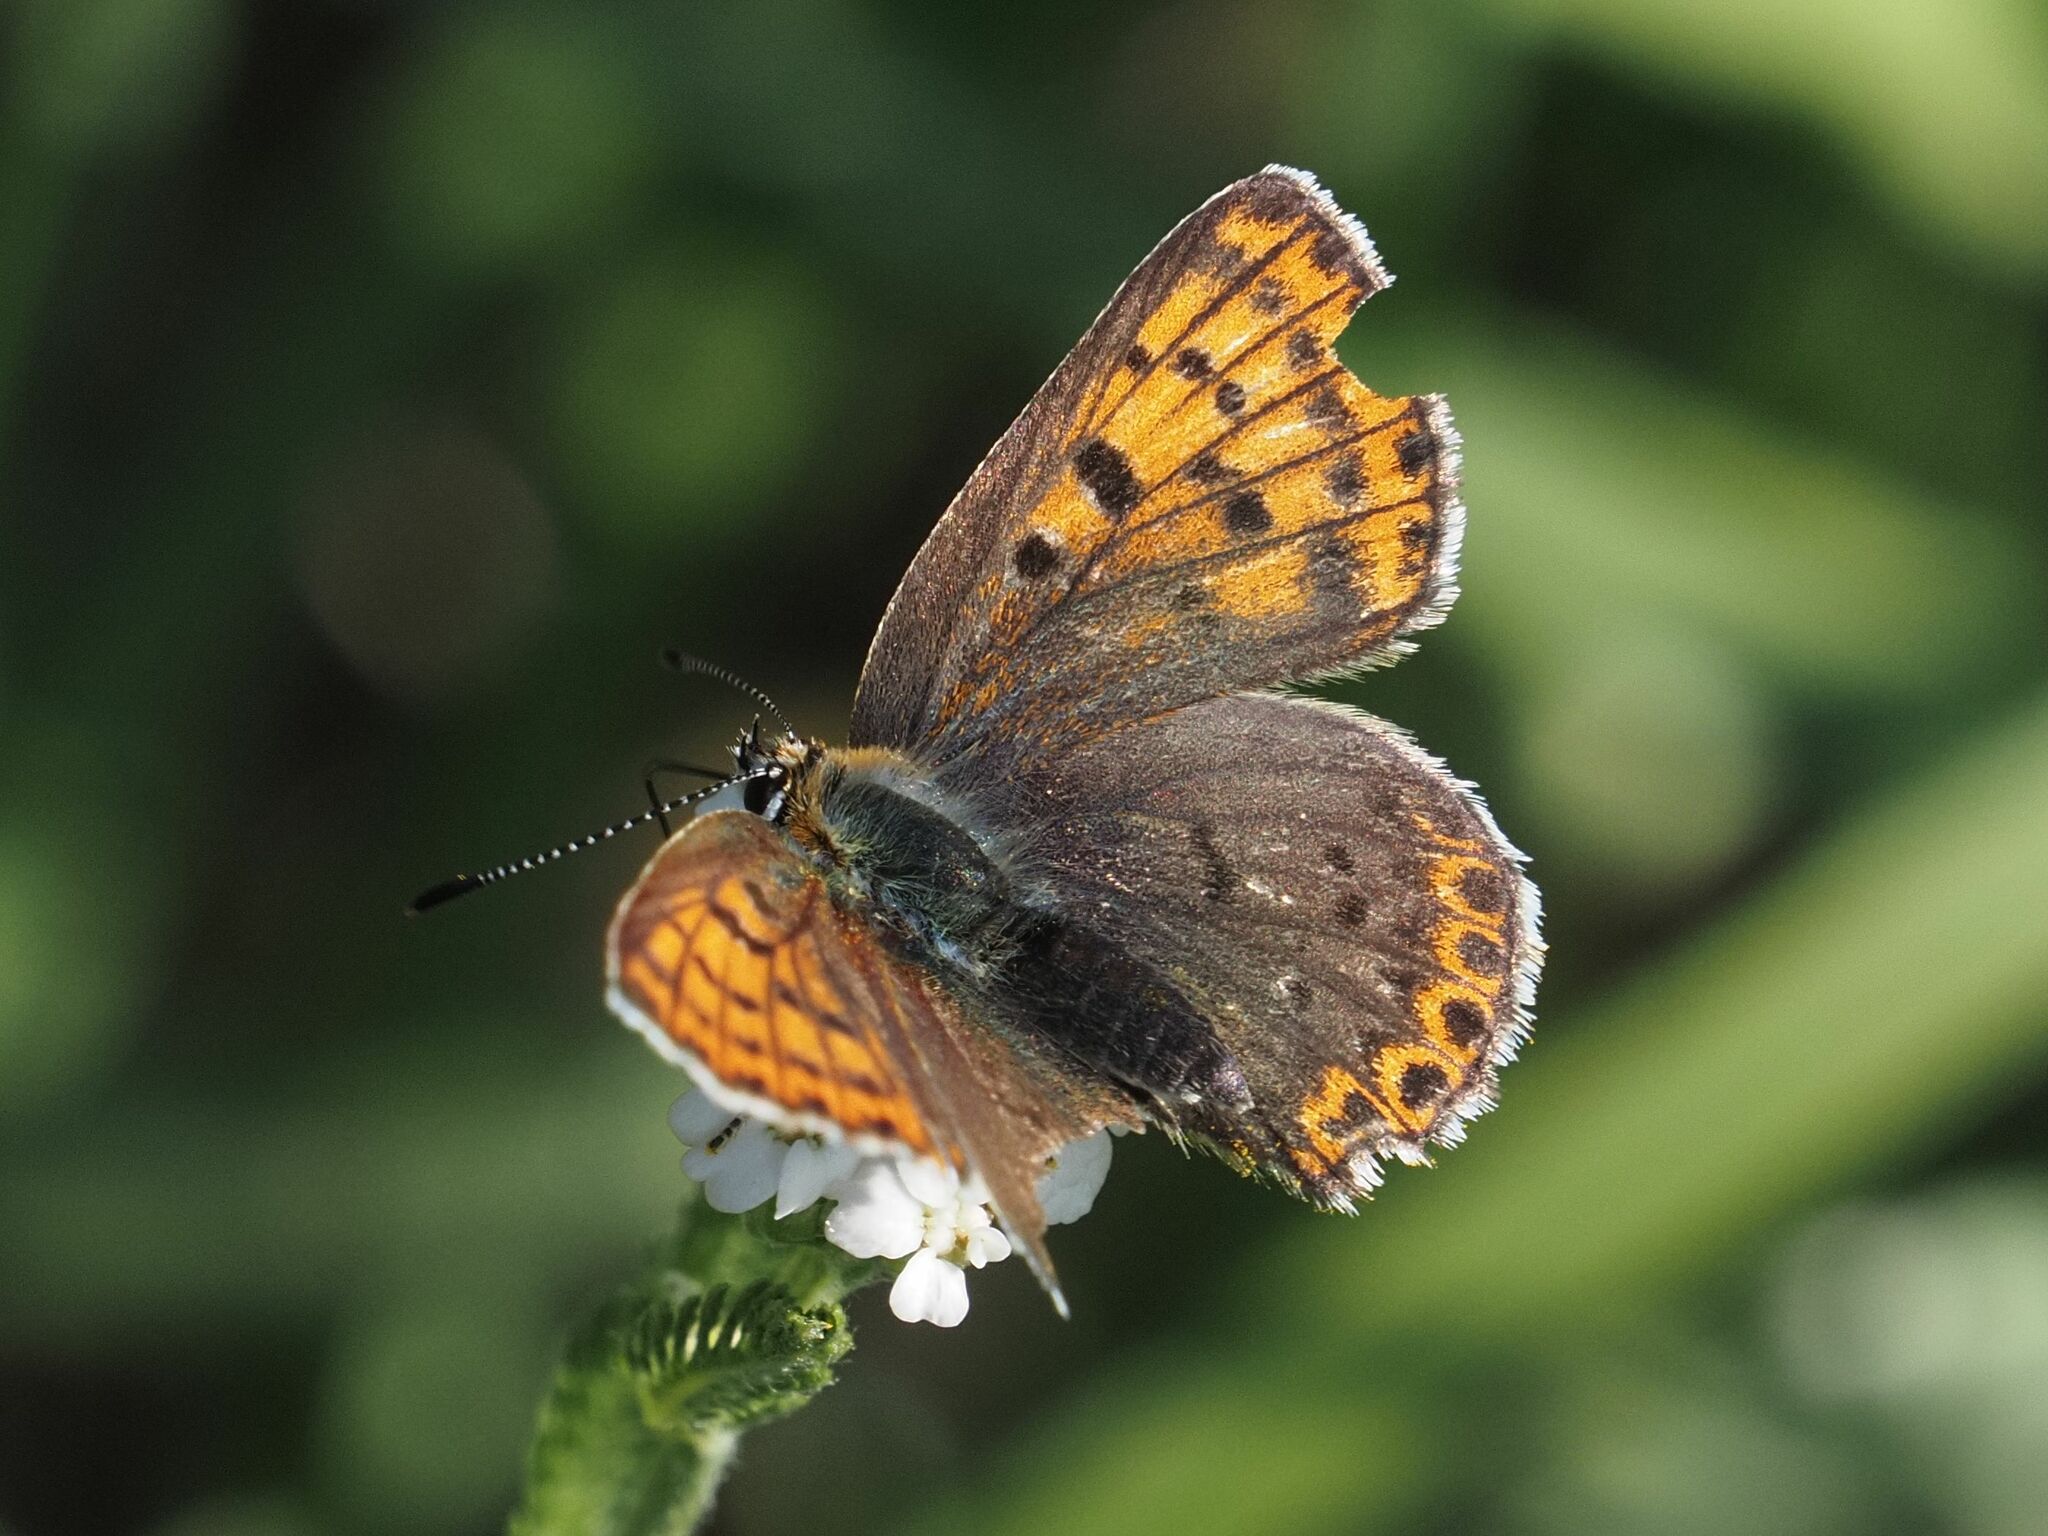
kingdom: Animalia
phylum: Arthropoda
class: Insecta
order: Lepidoptera
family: Lycaenidae
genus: Loweia
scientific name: Loweia tityrus
